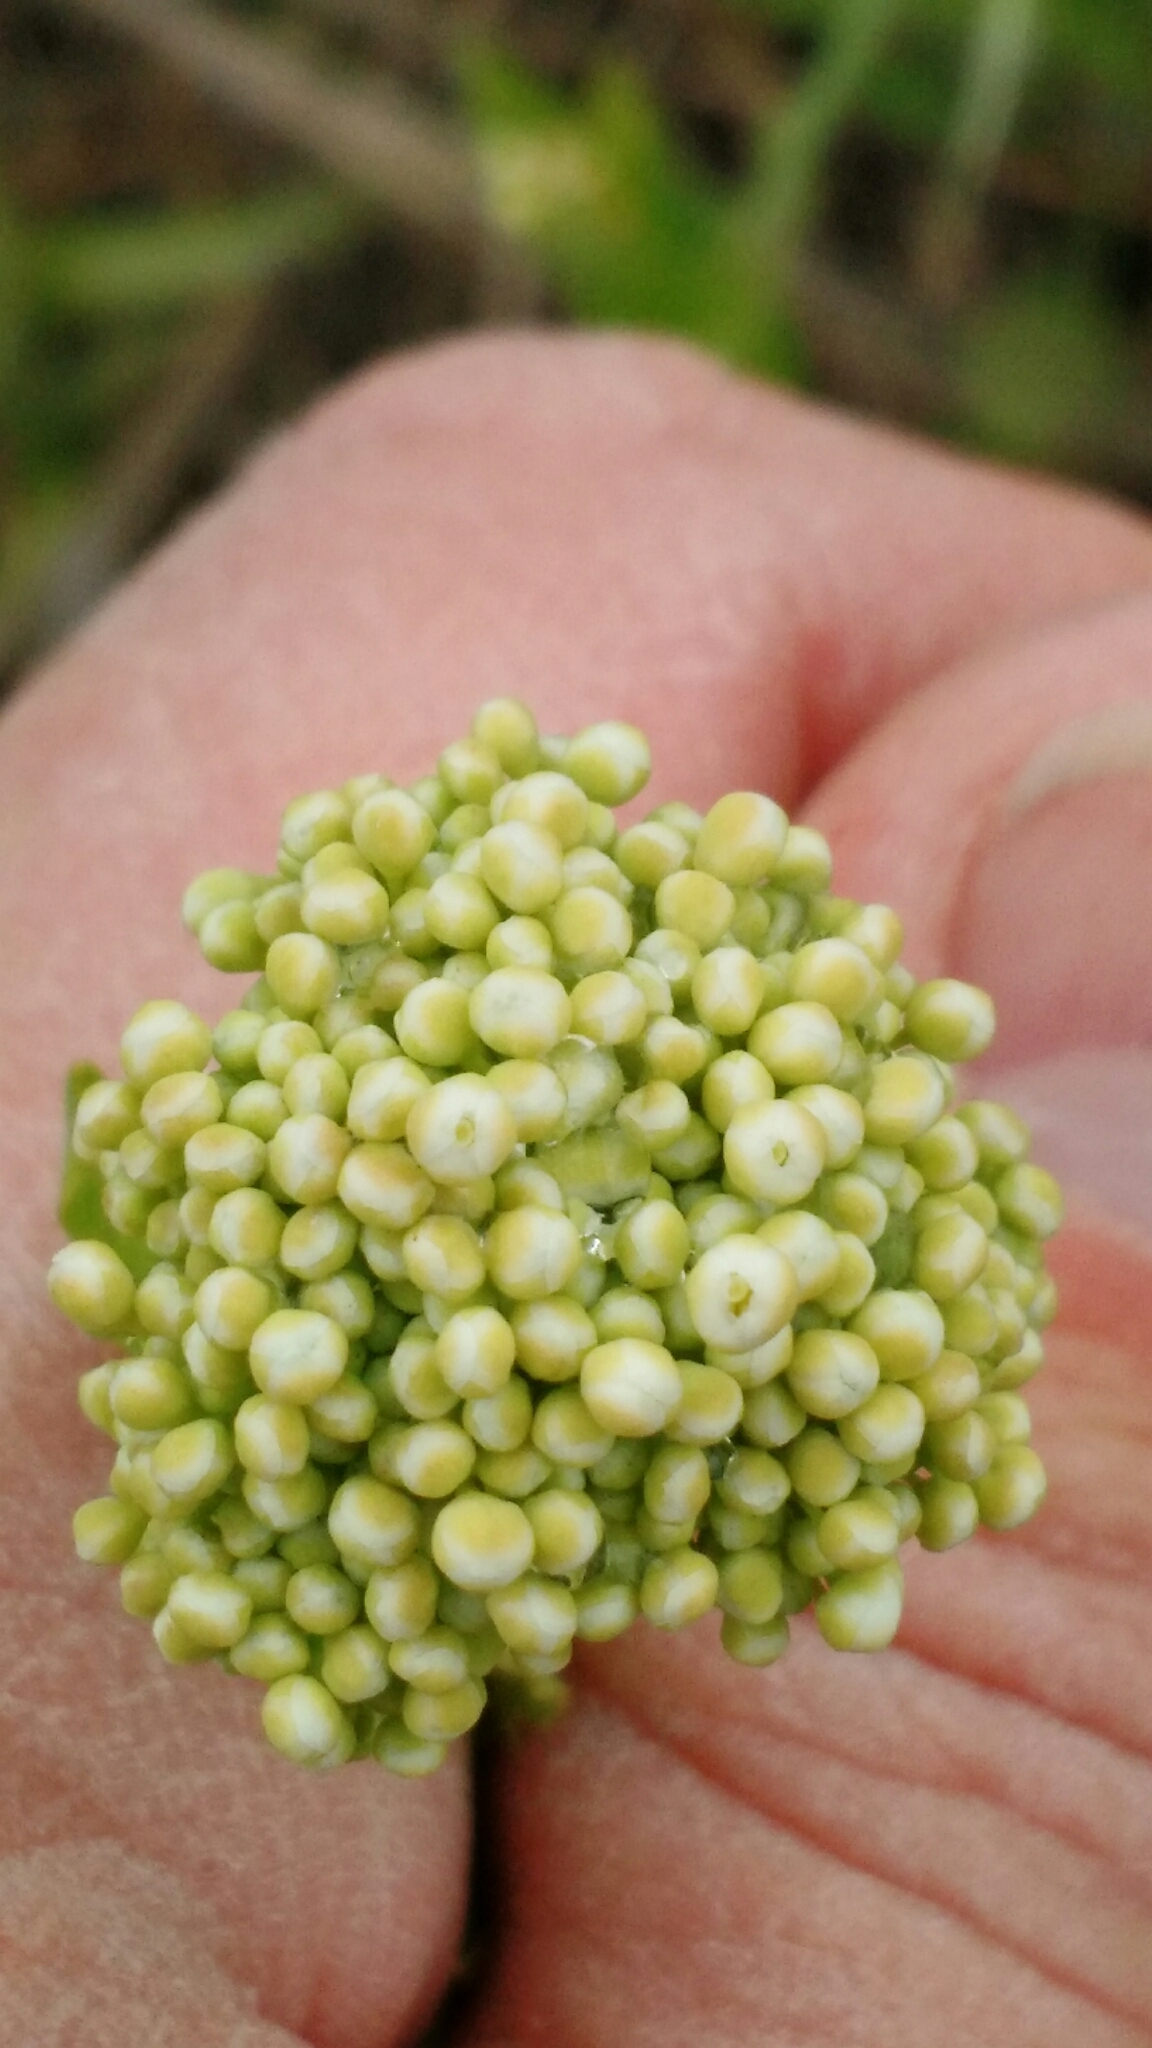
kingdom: Plantae
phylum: Tracheophyta
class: Magnoliopsida
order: Brassicales
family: Brassicaceae
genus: Lepidium
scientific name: Lepidium draba
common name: Hoary cress
